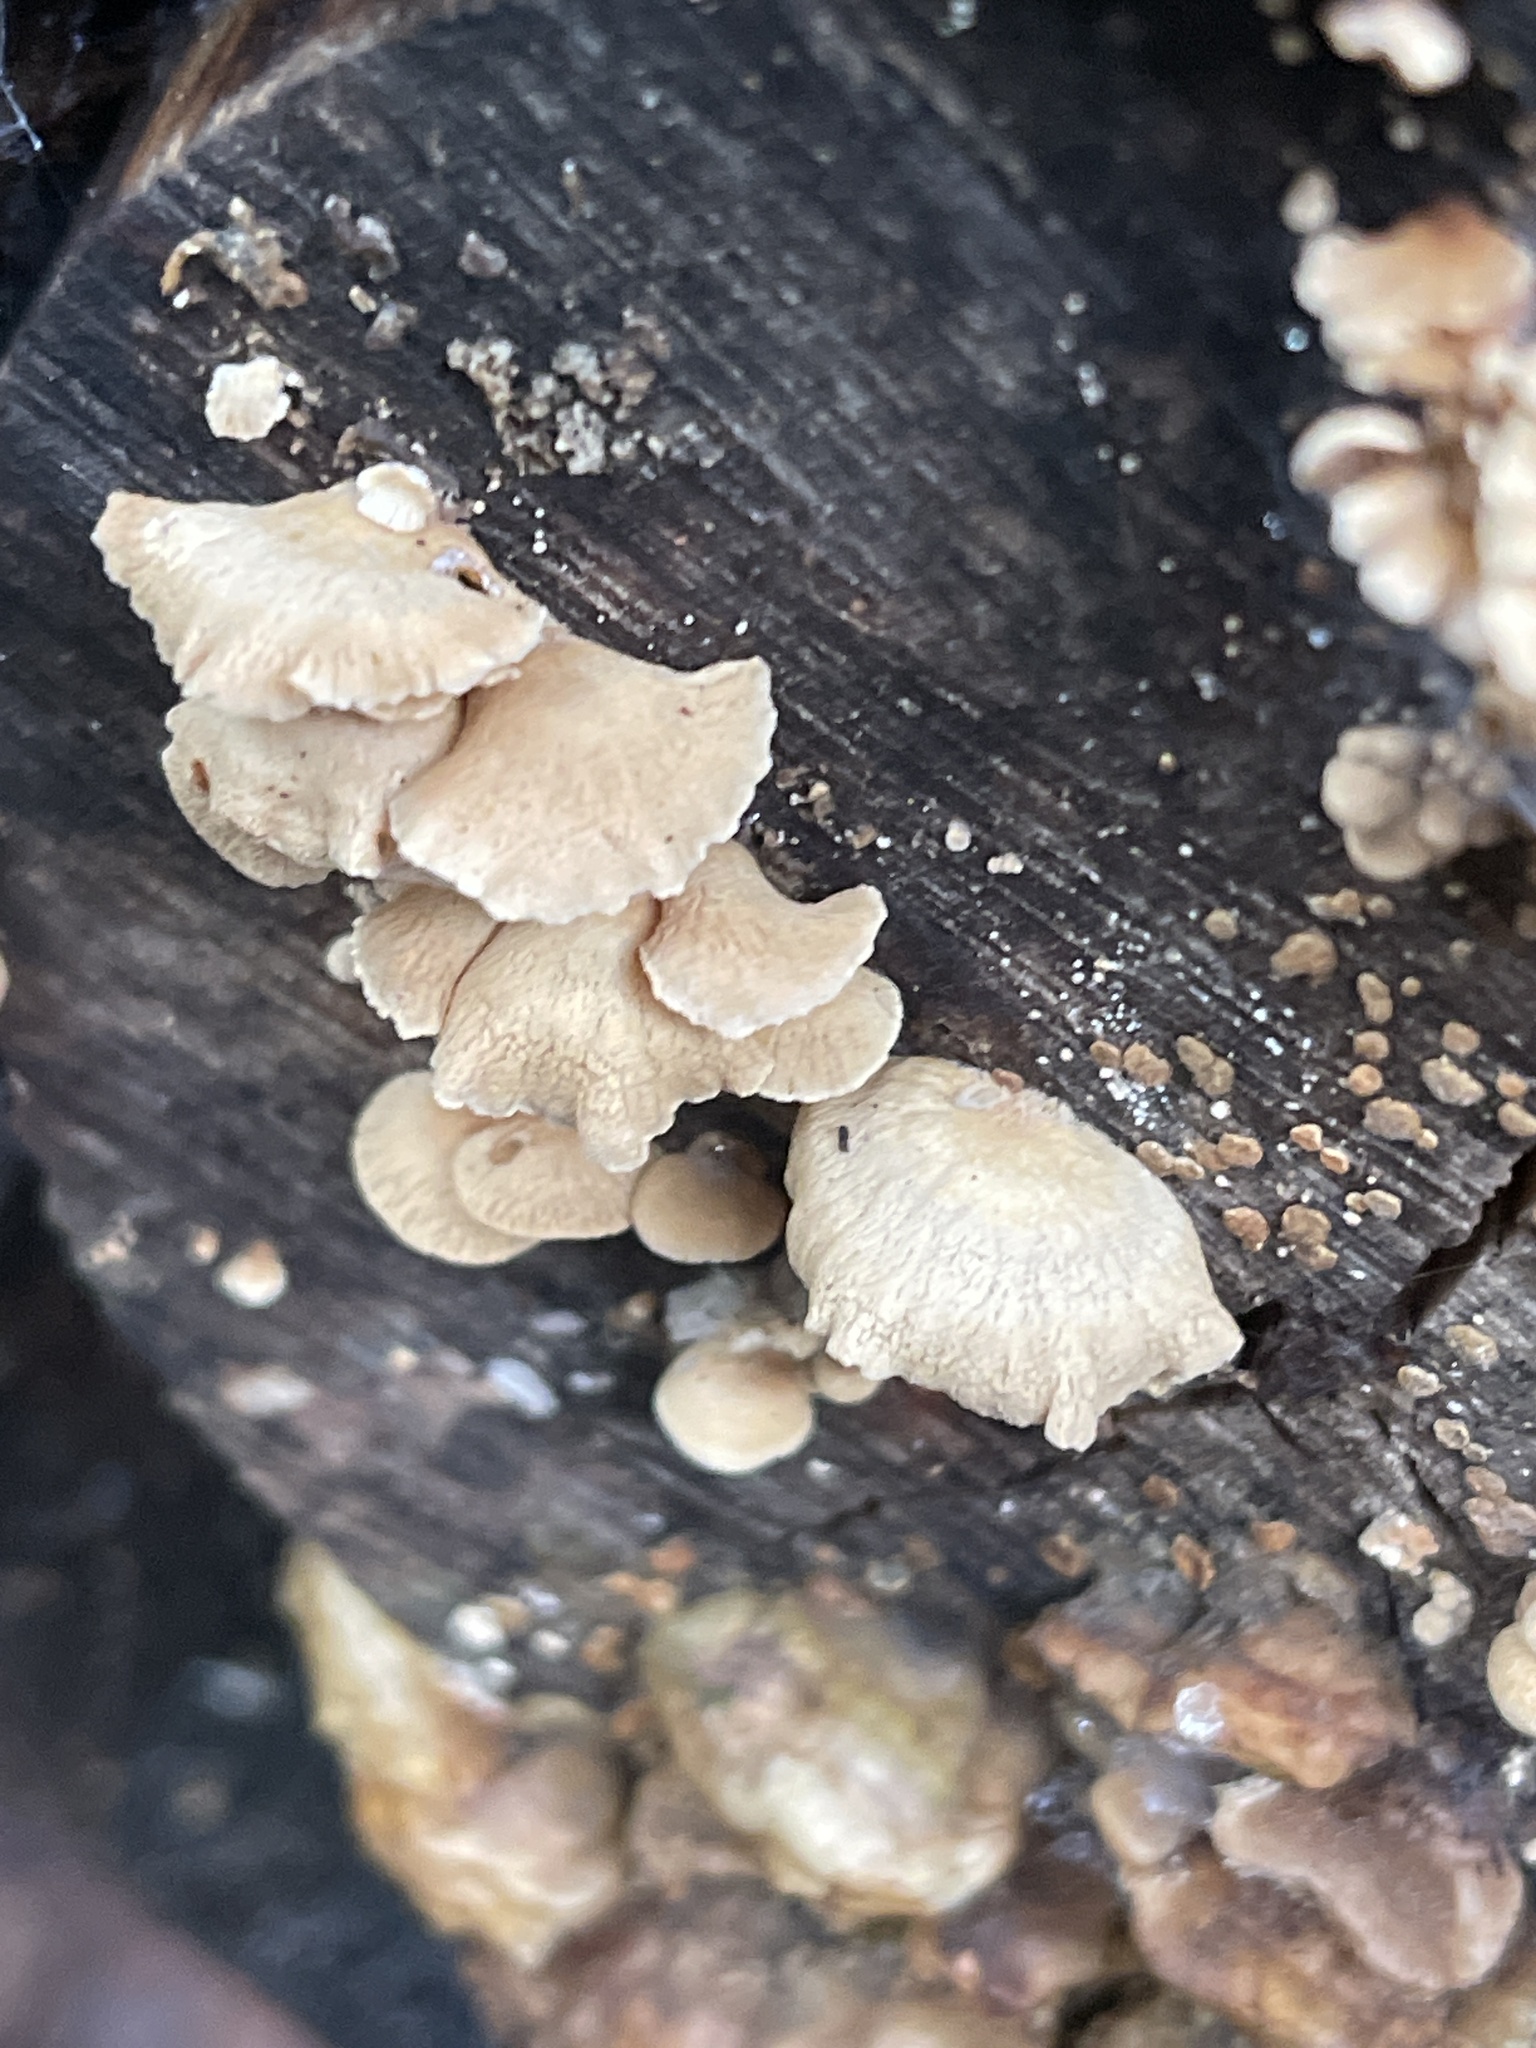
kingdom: Fungi
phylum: Basidiomycota
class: Agaricomycetes
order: Agaricales
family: Mycenaceae
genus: Panellus
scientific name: Panellus stipticus
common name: Bitter oysterling
